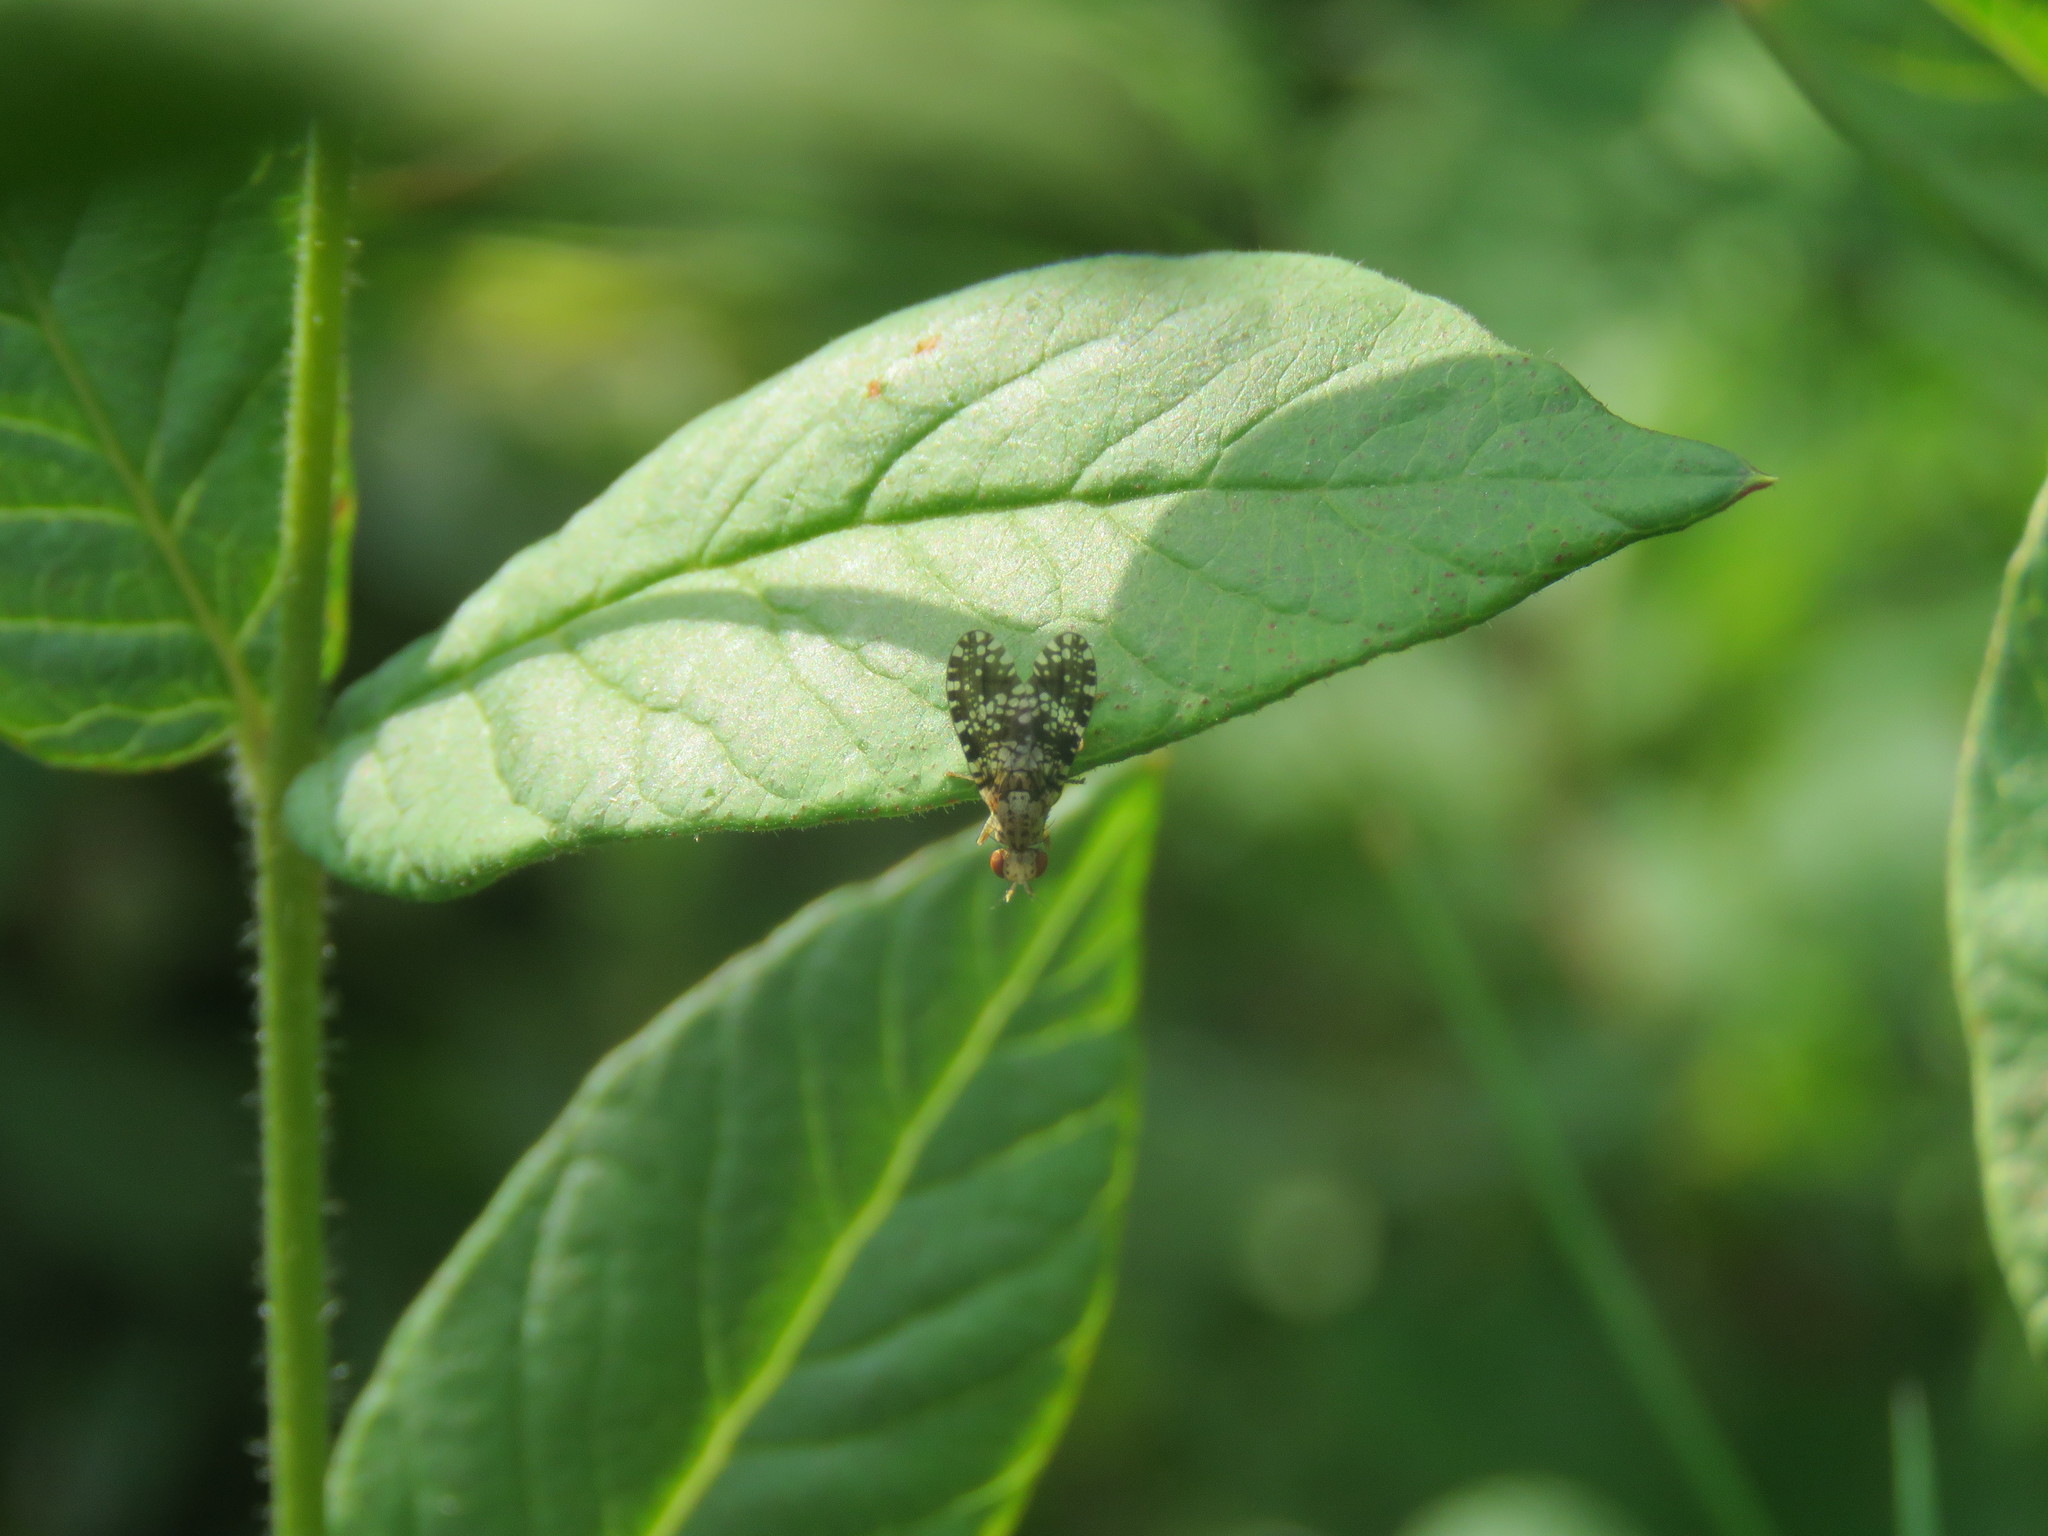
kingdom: Animalia
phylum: Arthropoda
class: Insecta
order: Diptera
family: Sciomyzidae
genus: Trypetoptera
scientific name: Trypetoptera punctulata
